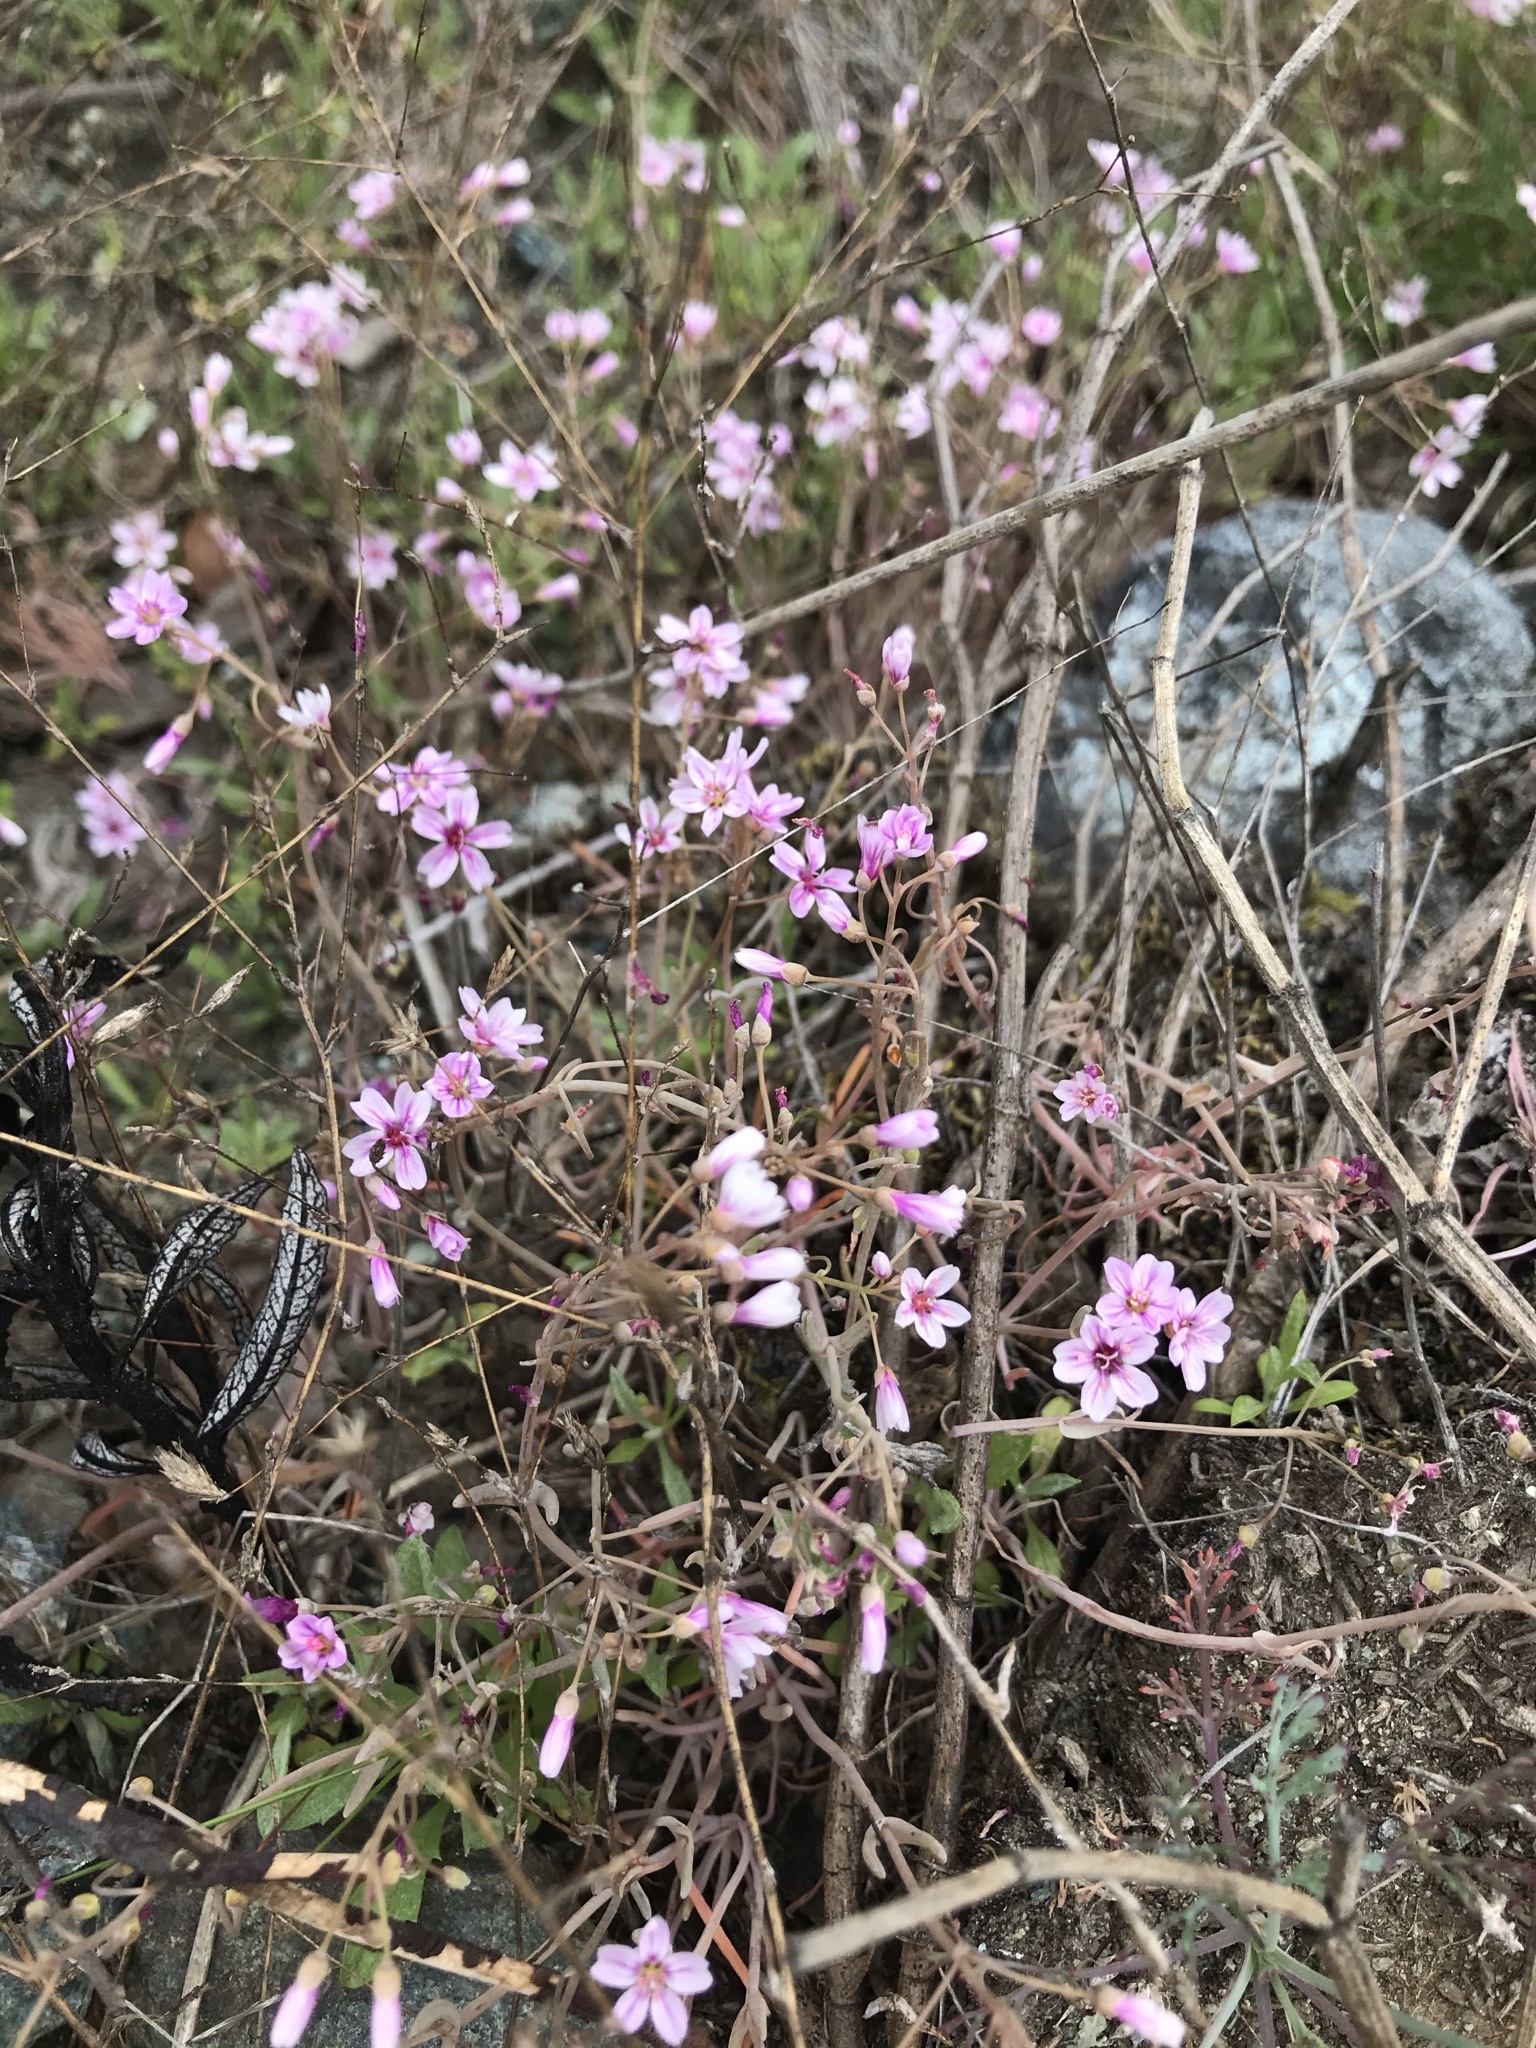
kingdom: Plantae
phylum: Tracheophyta
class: Magnoliopsida
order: Caryophyllales
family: Montiaceae
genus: Claytonia
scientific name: Claytonia gypsophiloides
